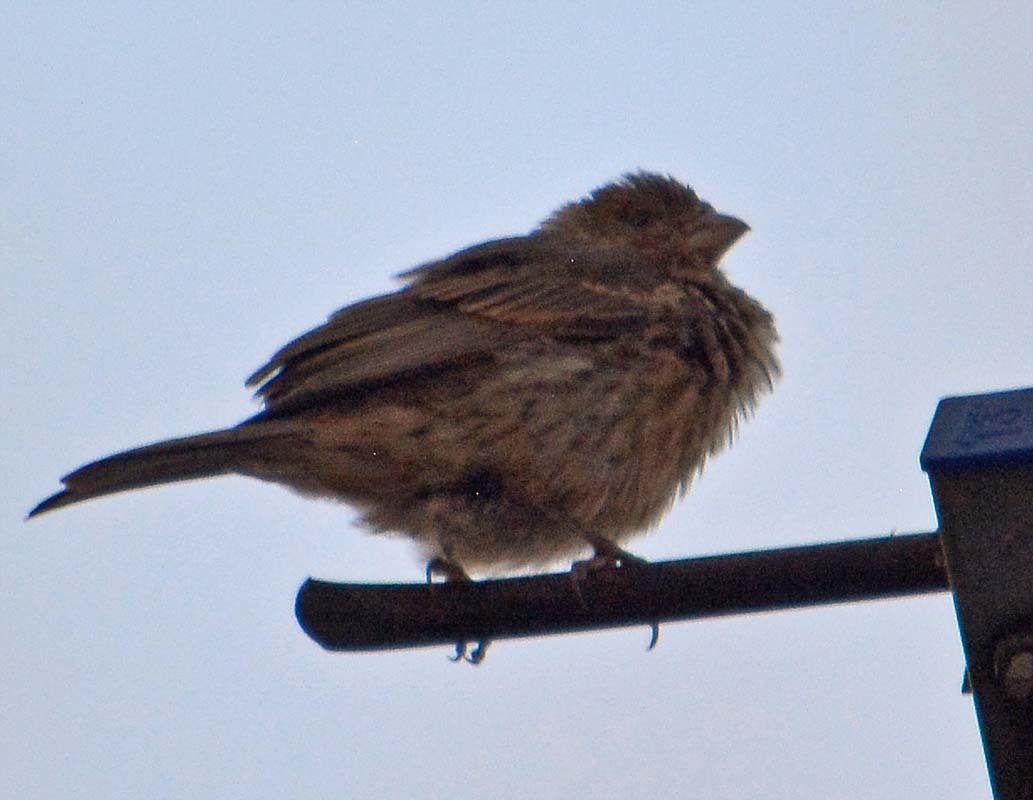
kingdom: Animalia
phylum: Chordata
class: Aves
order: Passeriformes
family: Fringillidae
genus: Haemorhous
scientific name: Haemorhous mexicanus
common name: House finch
